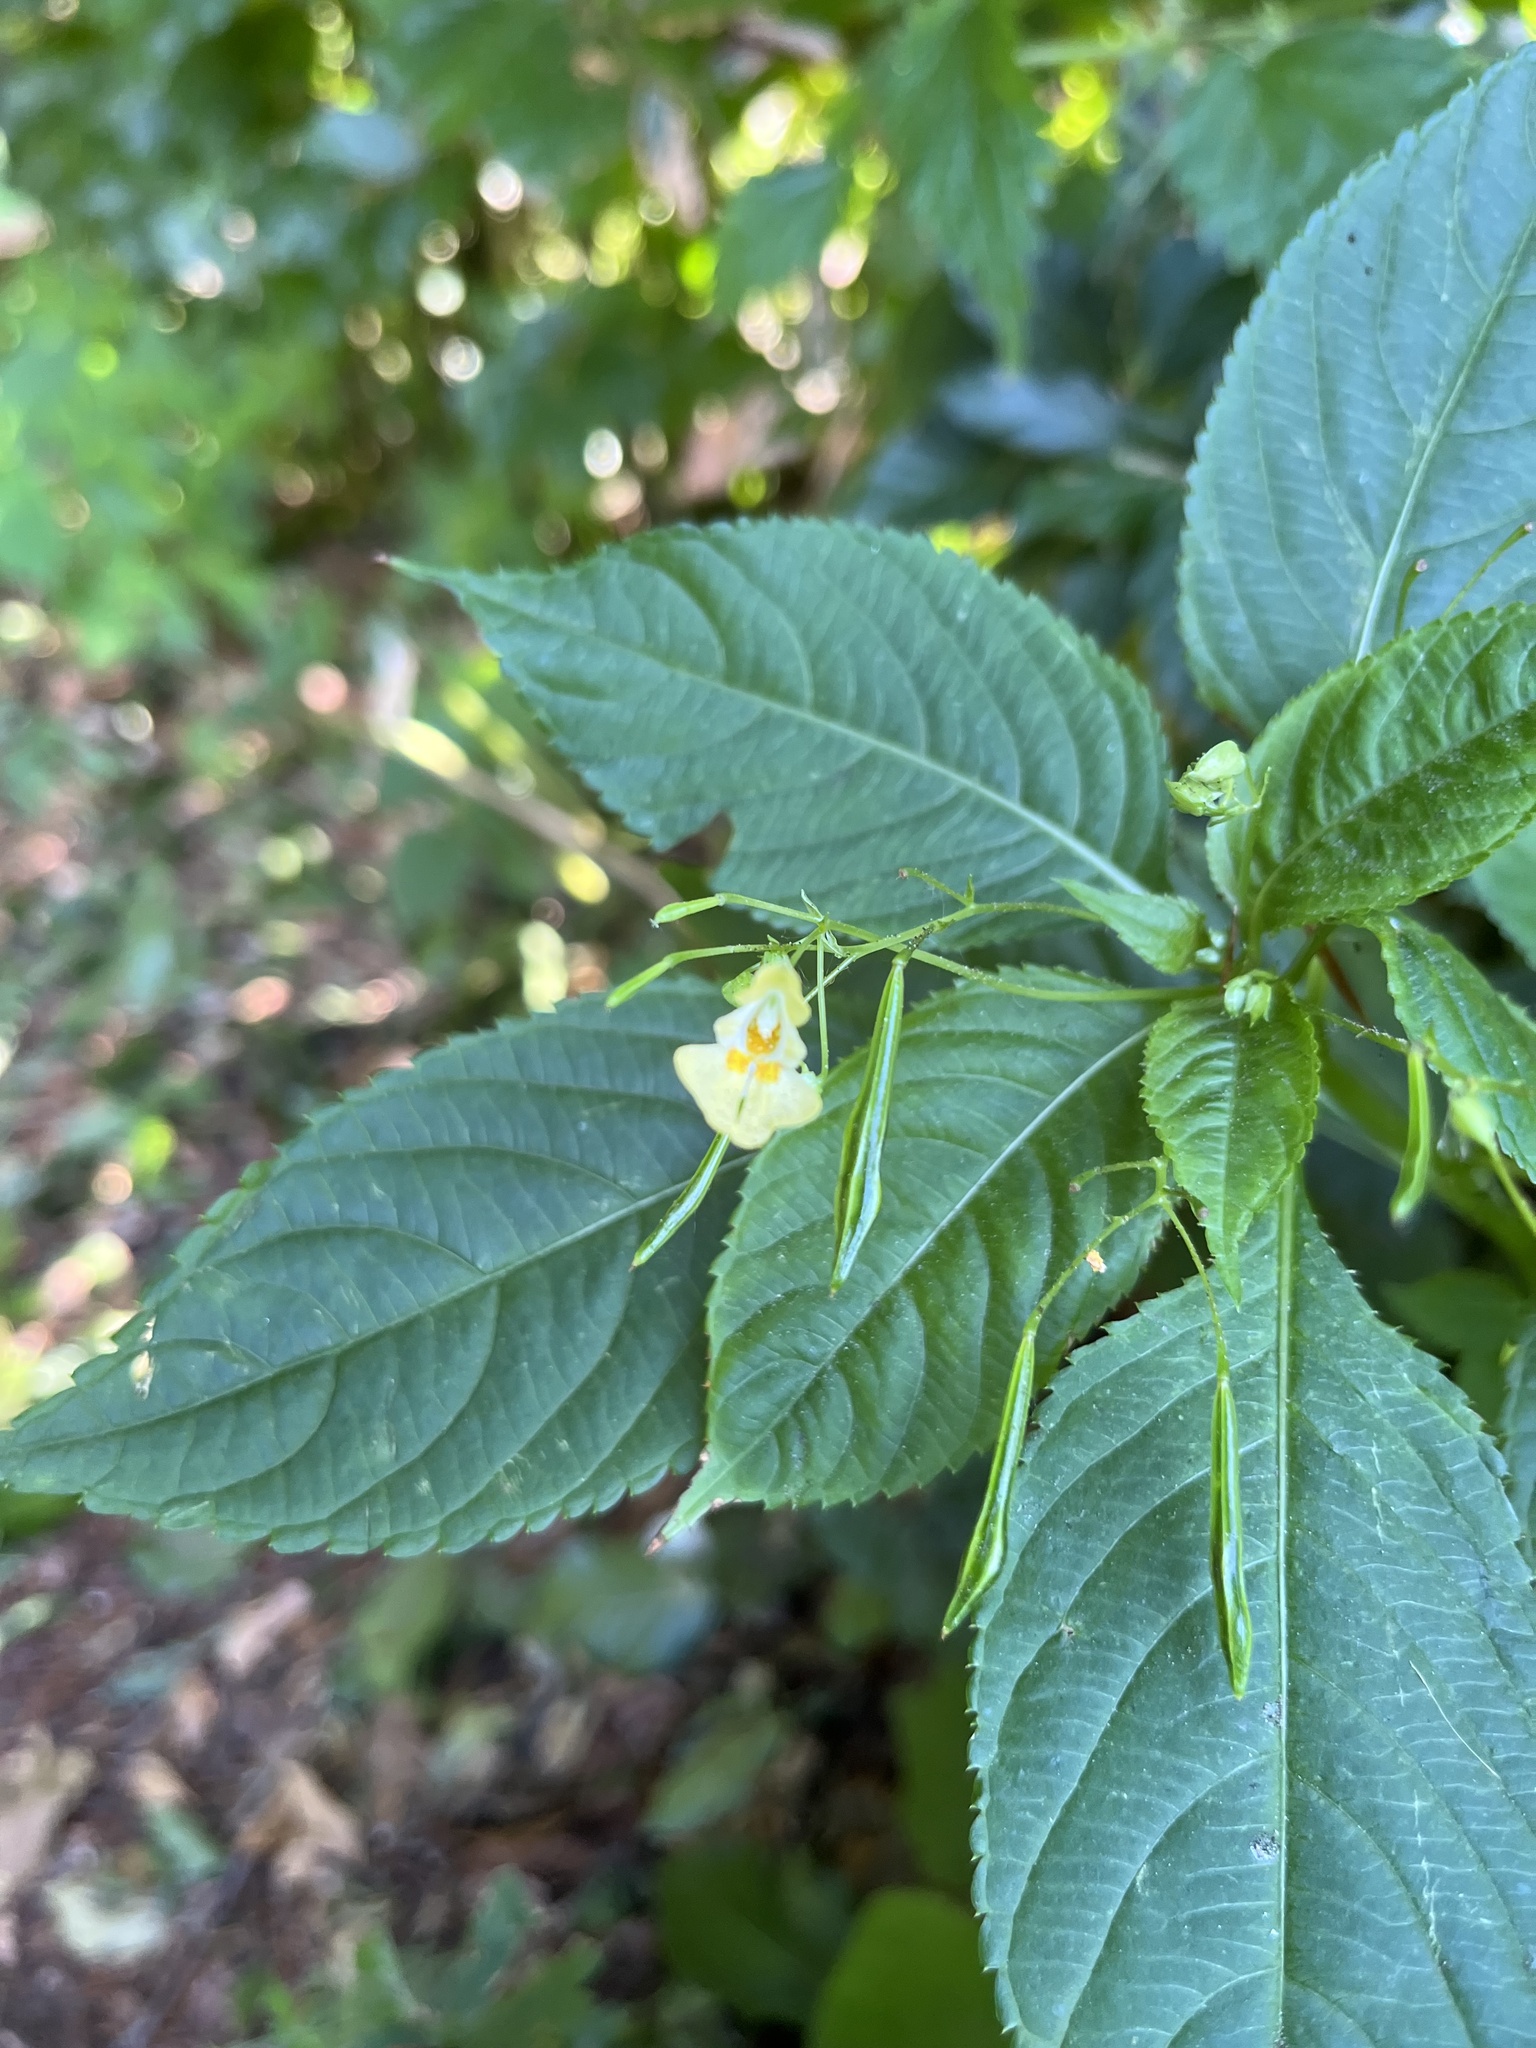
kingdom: Plantae
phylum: Tracheophyta
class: Magnoliopsida
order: Ericales
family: Balsaminaceae
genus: Impatiens
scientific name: Impatiens parviflora
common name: Small balsam
